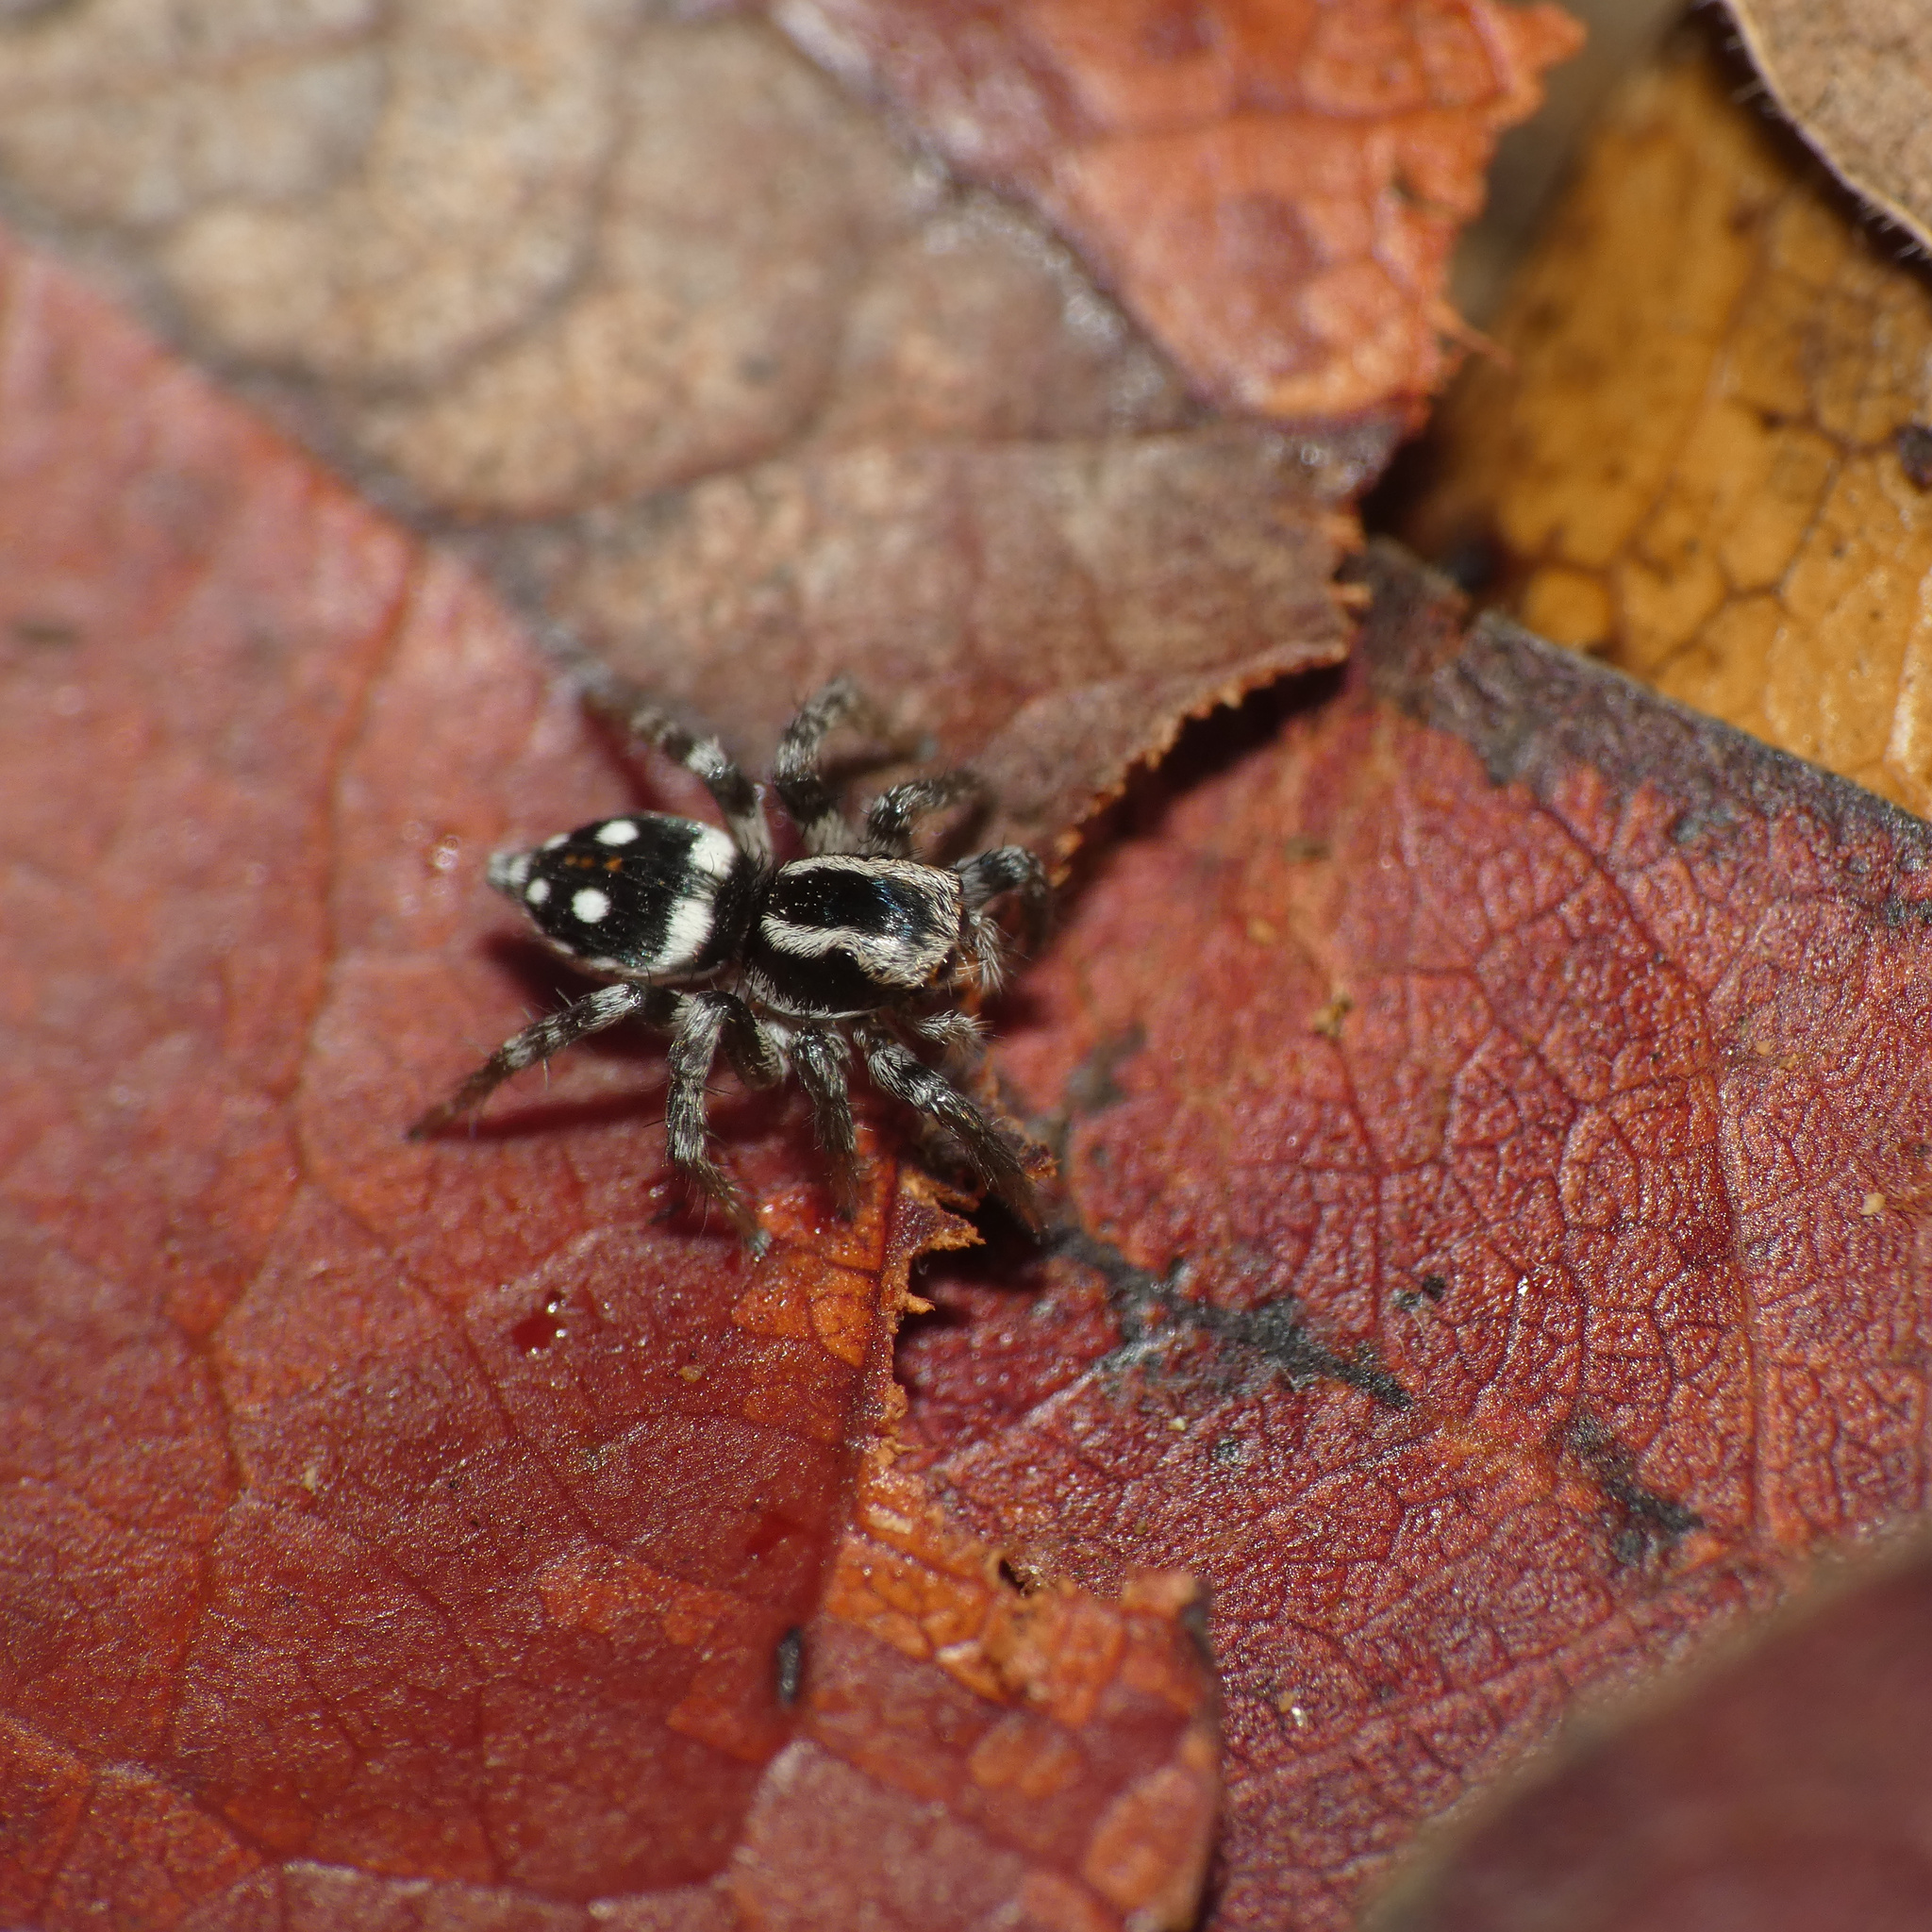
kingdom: Animalia
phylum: Arthropoda
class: Arachnida
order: Araneae
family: Salticidae
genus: Stenaelurillus
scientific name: Stenaelurillus guttatus
